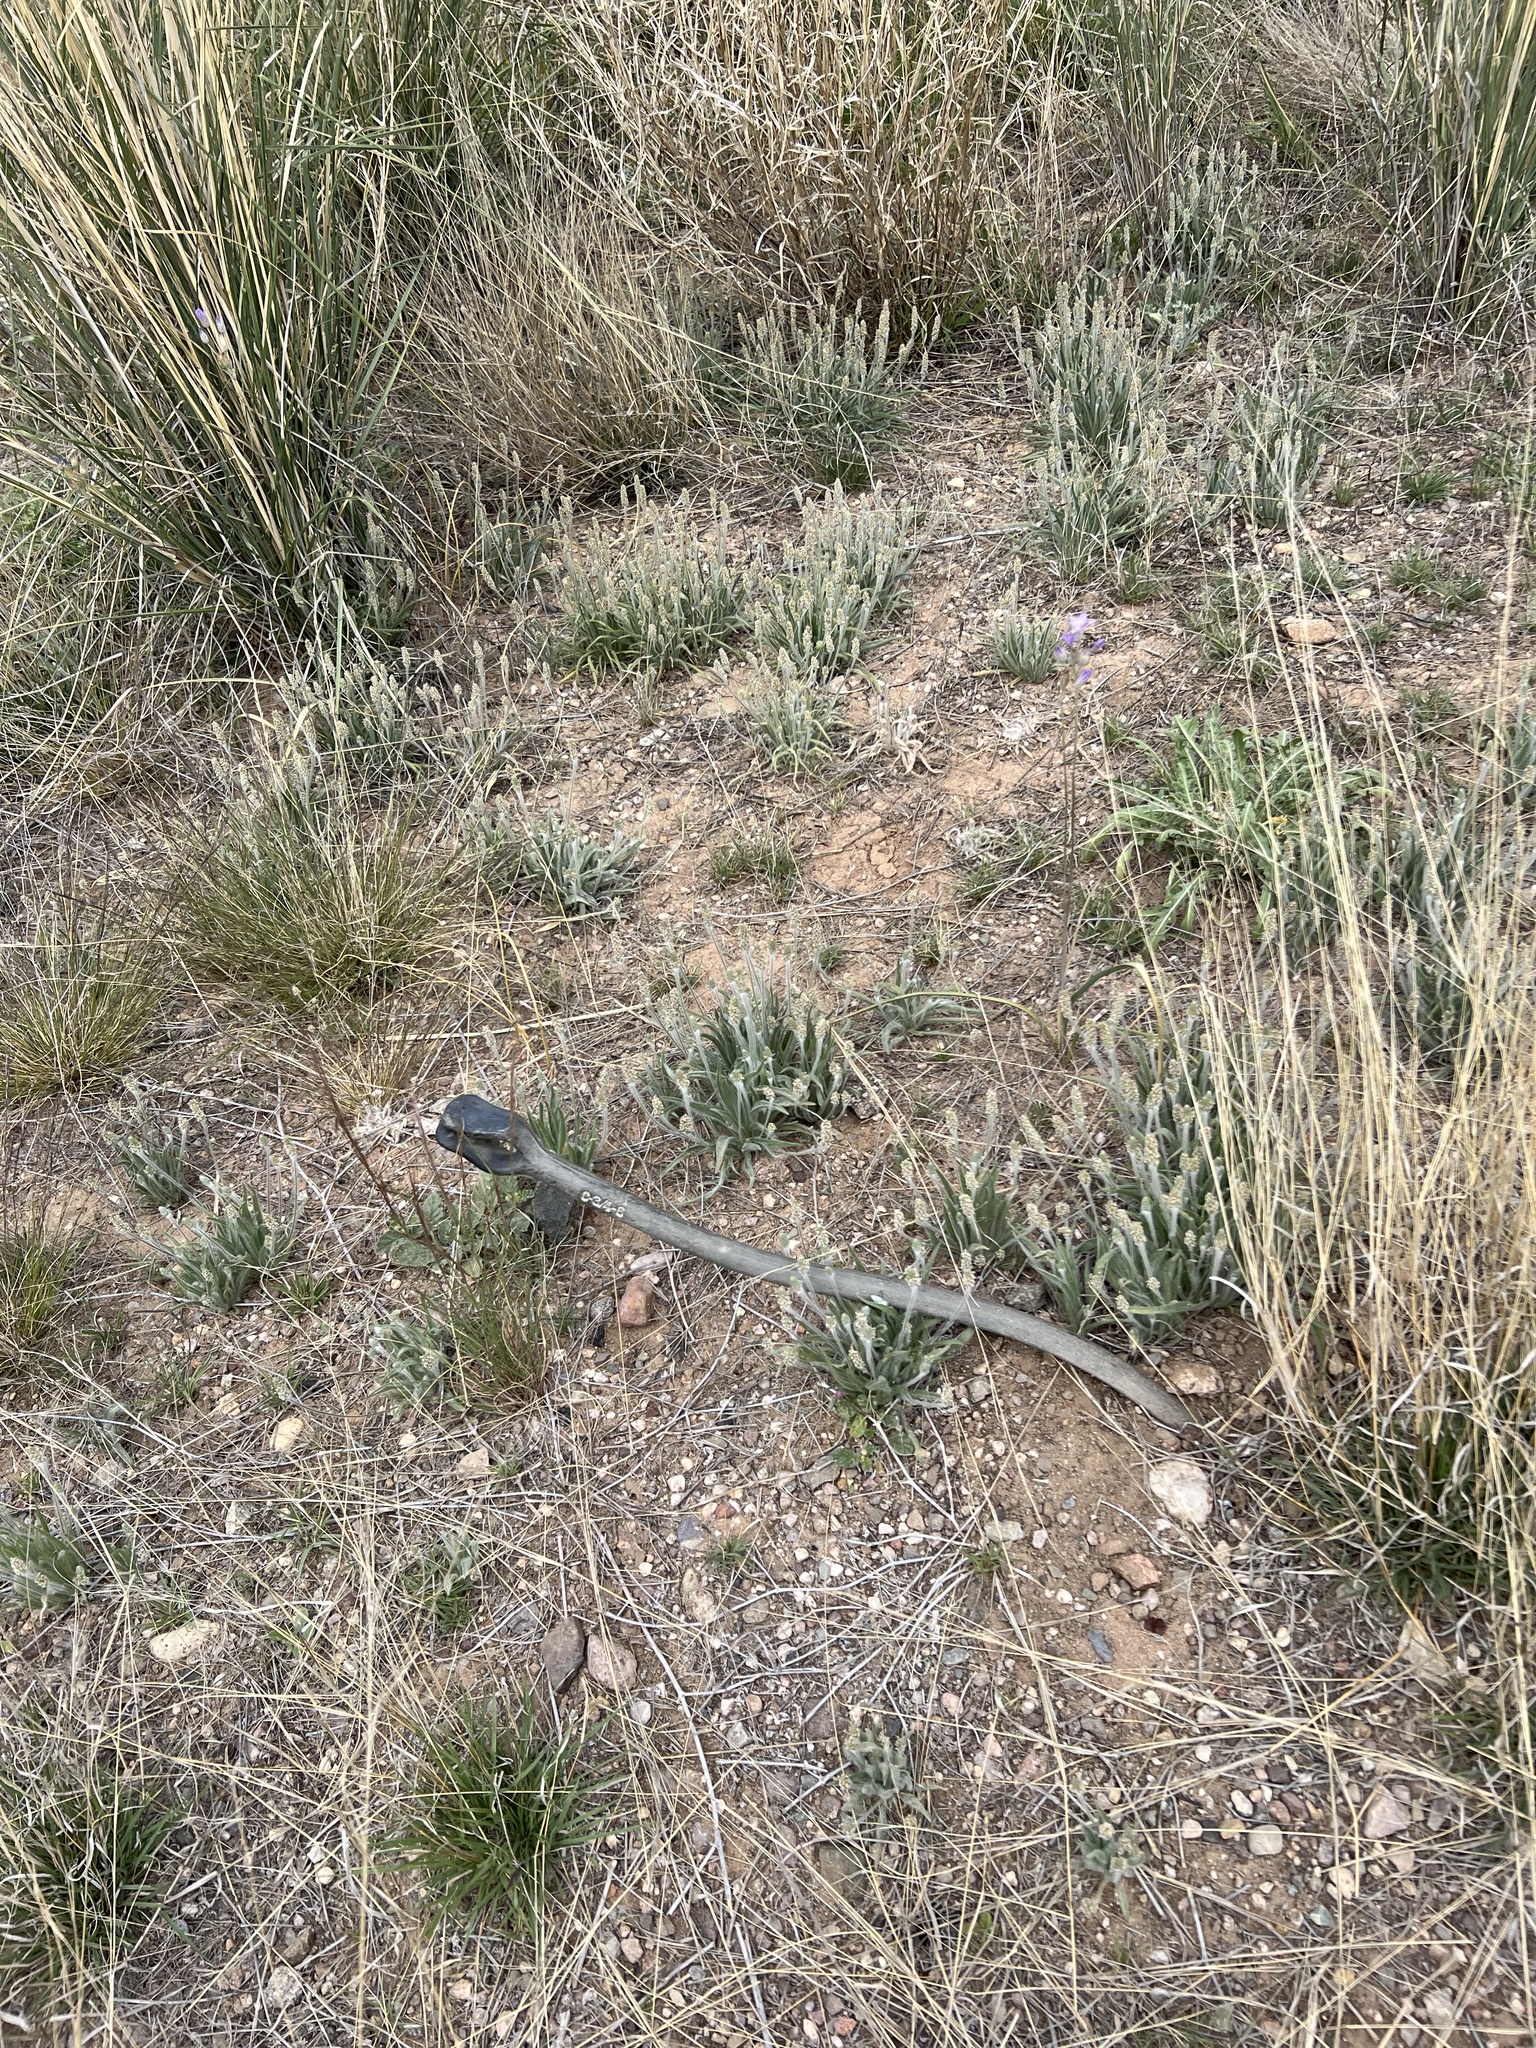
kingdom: Plantae
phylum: Tracheophyta
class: Magnoliopsida
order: Lamiales
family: Plantaginaceae
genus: Plantago
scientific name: Plantago ovata
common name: Blond plantain
